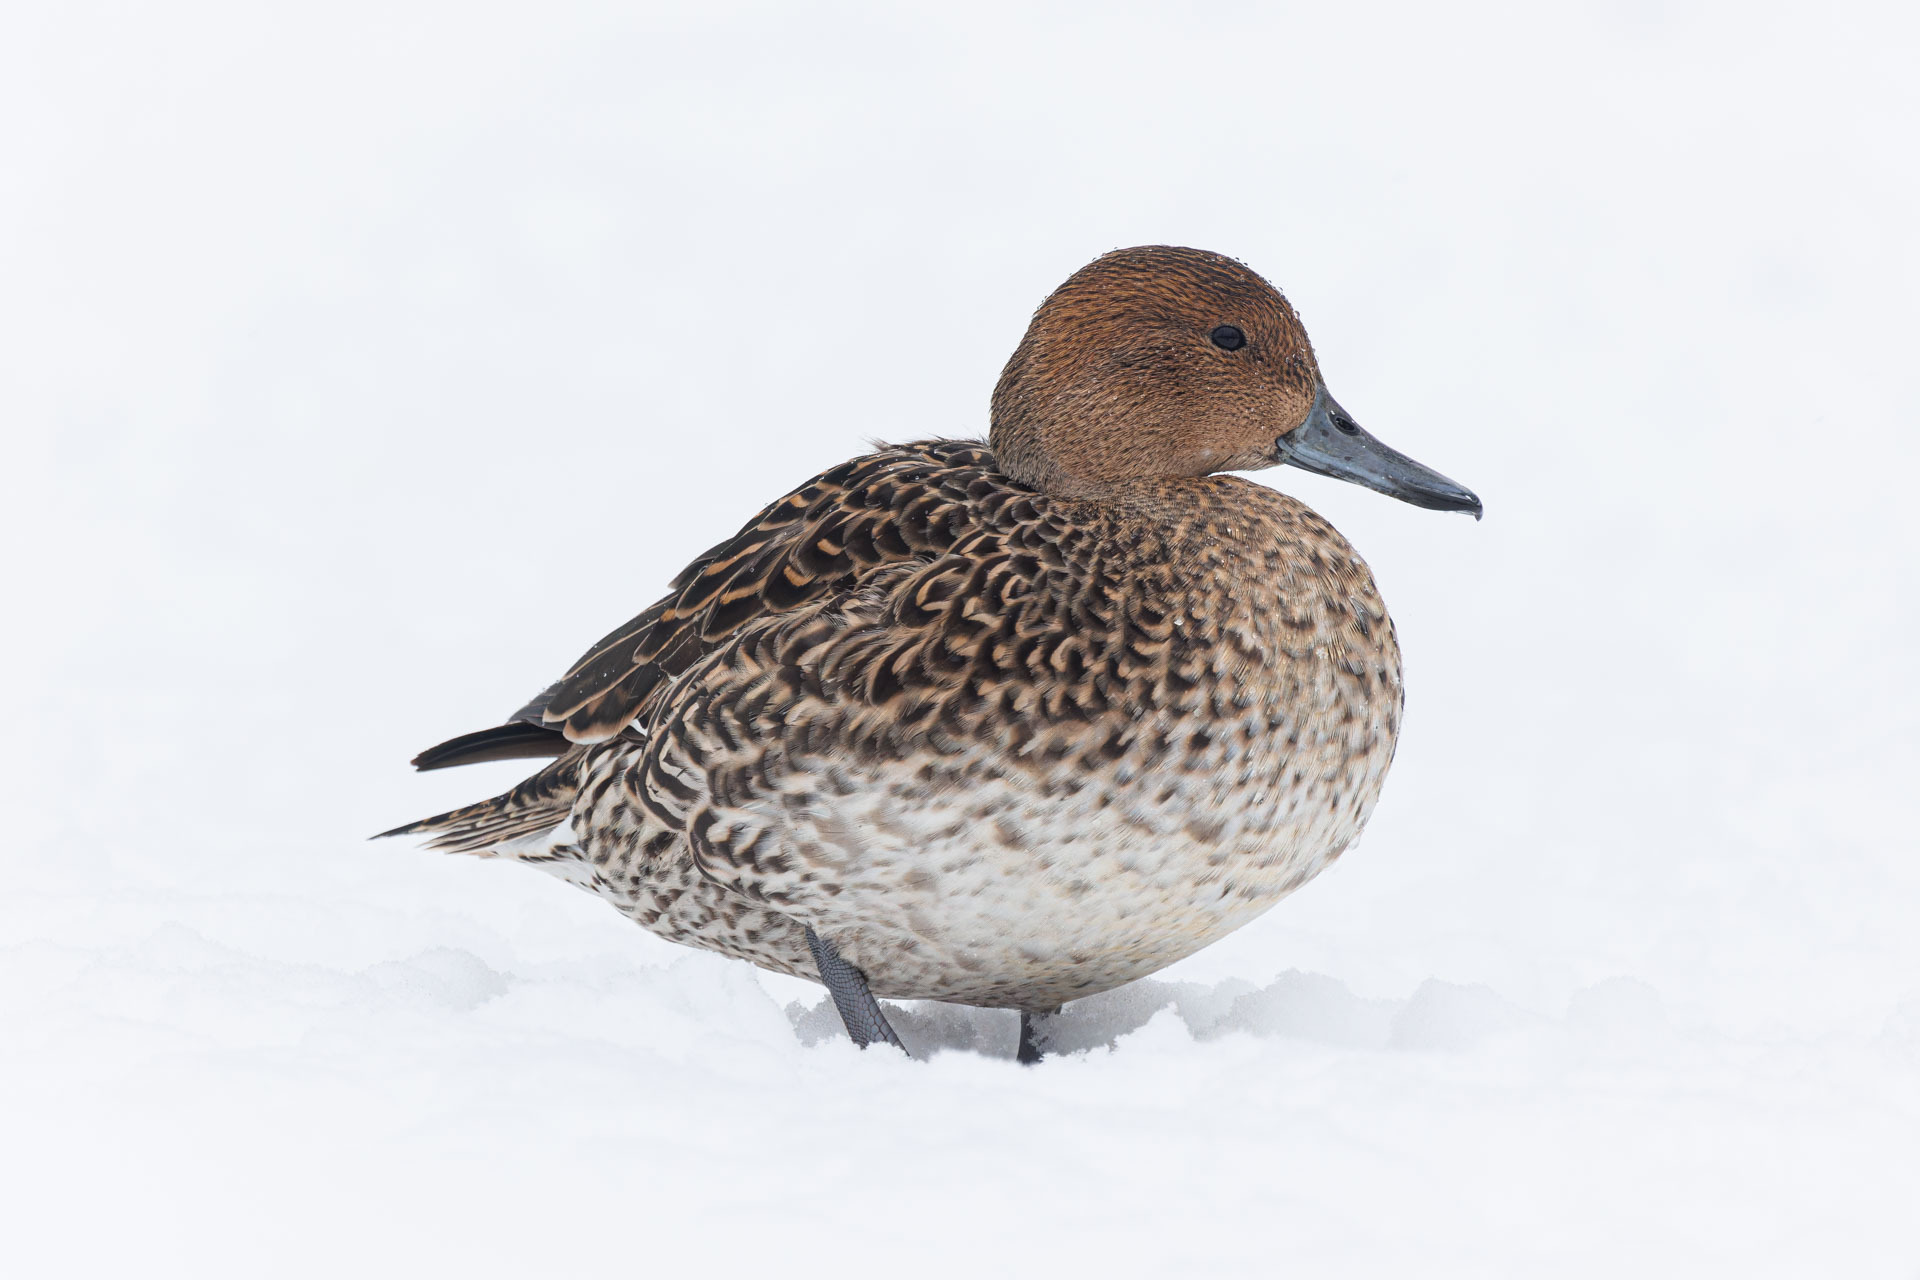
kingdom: Animalia
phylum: Chordata
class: Aves
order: Anseriformes
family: Anatidae
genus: Anas
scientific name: Anas acuta
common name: Northern pintail
